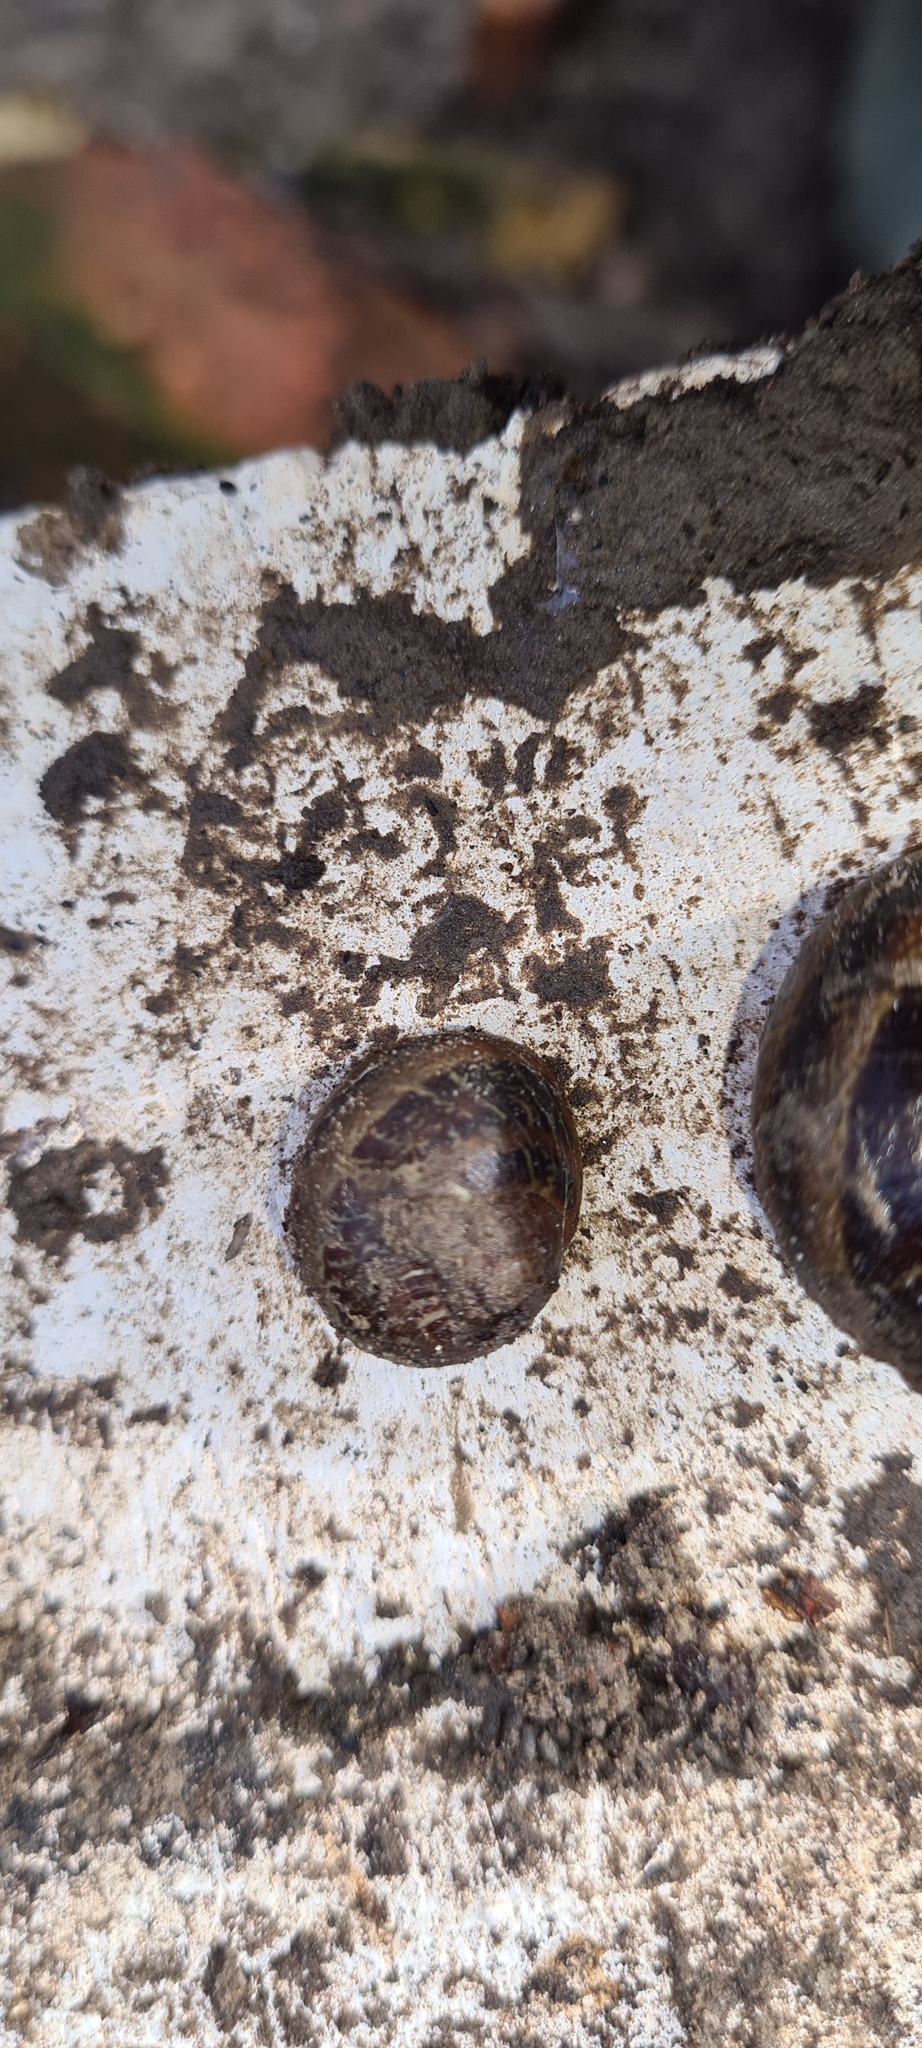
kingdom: Animalia
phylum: Mollusca
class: Gastropoda
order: Stylommatophora
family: Helicidae
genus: Cornu
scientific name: Cornu aspersum
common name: Brown garden snail
